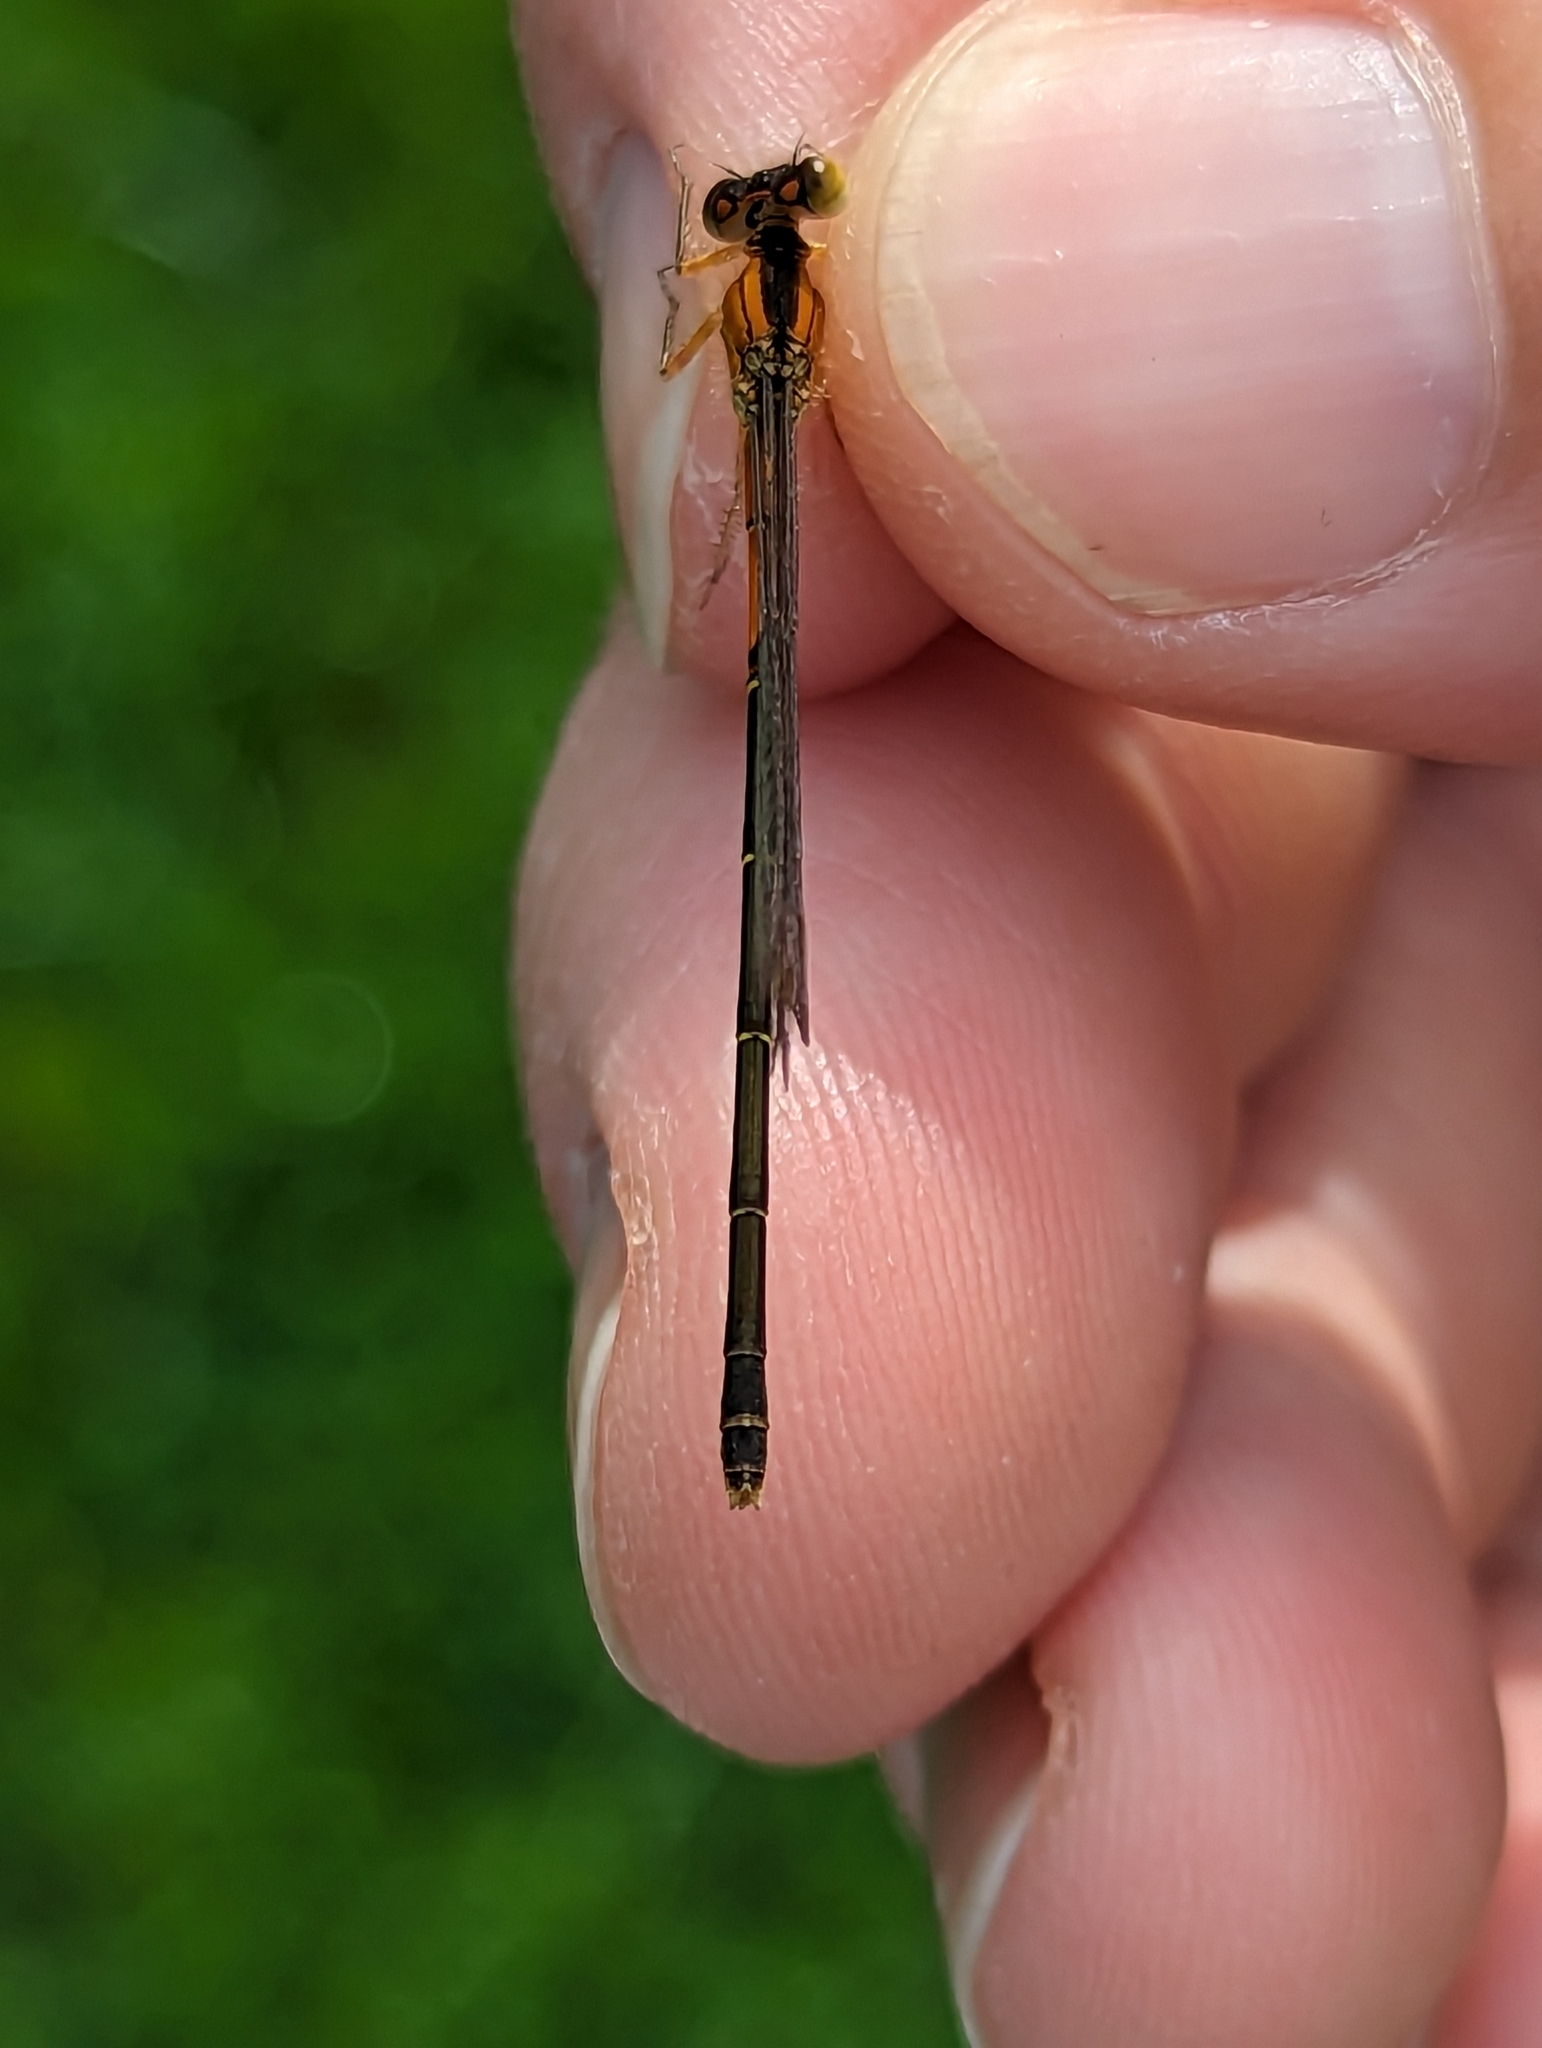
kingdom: Animalia
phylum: Arthropoda
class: Insecta
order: Odonata
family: Coenagrionidae
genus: Ischnura
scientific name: Ischnura verticalis
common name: Eastern forktail
